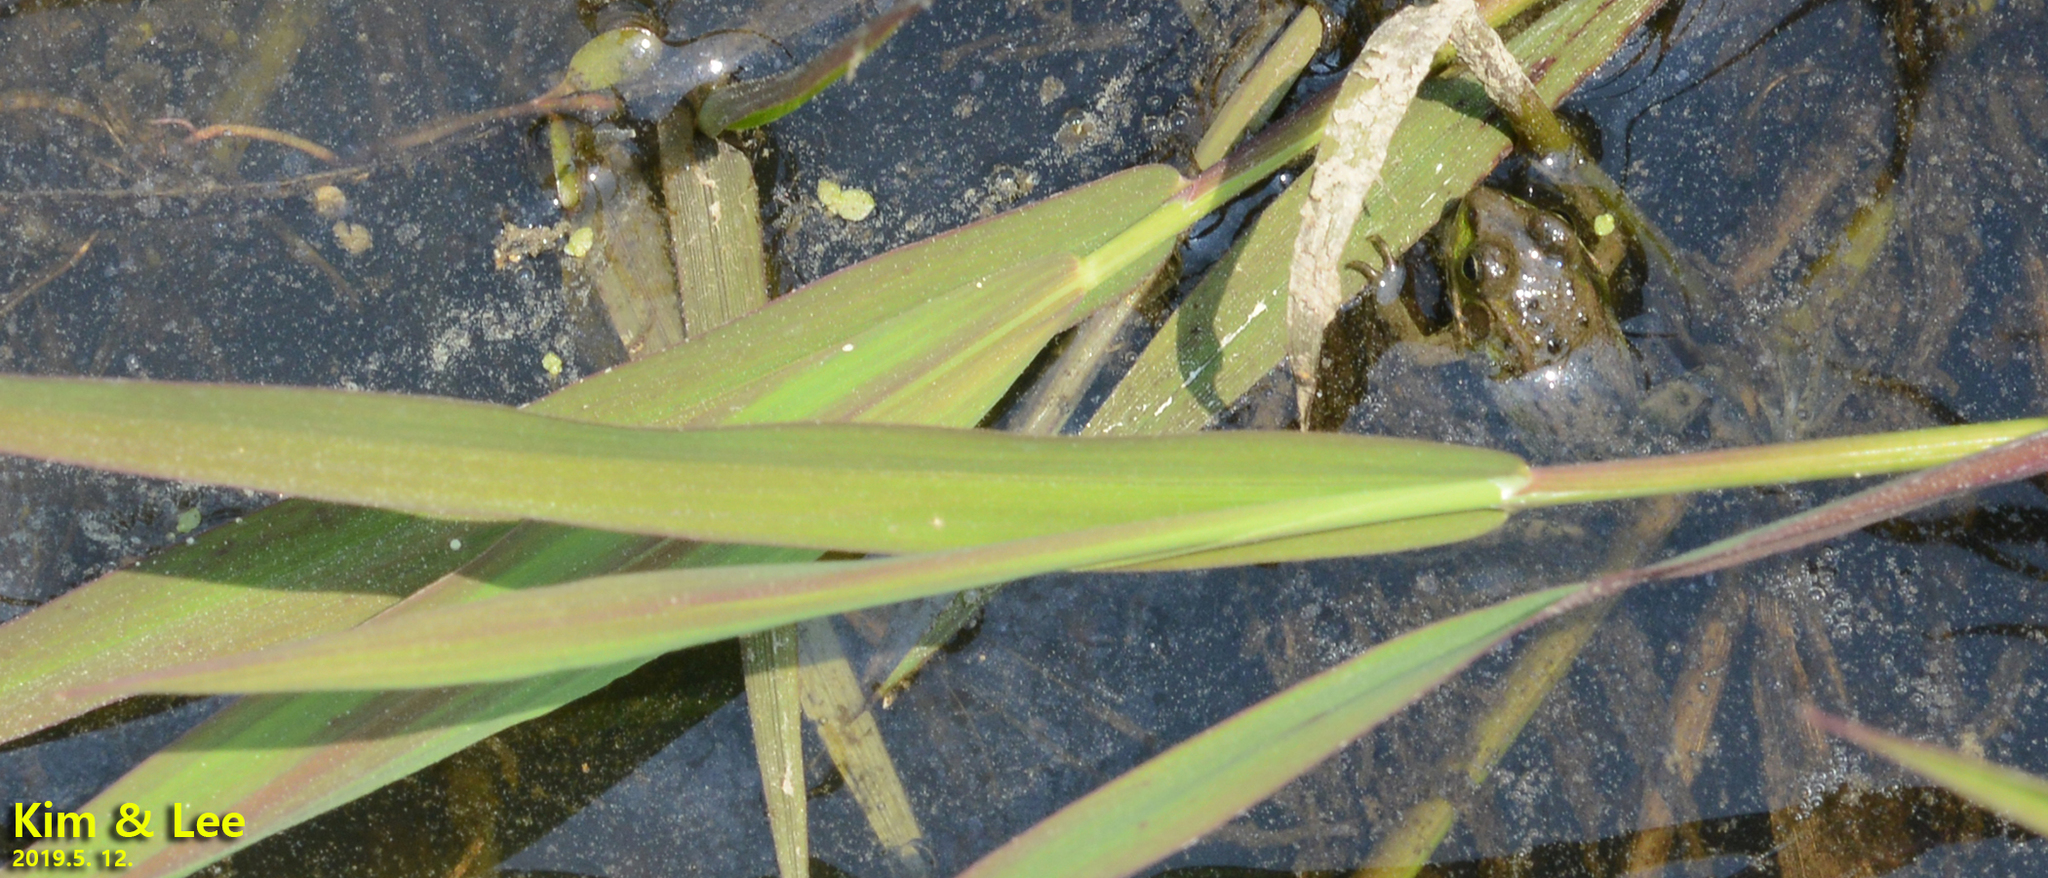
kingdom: Animalia
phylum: Chordata
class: Amphibia
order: Anura
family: Ranidae
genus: Pelophylax
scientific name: Pelophylax chosenicus
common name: Gold-spotted pond frog
